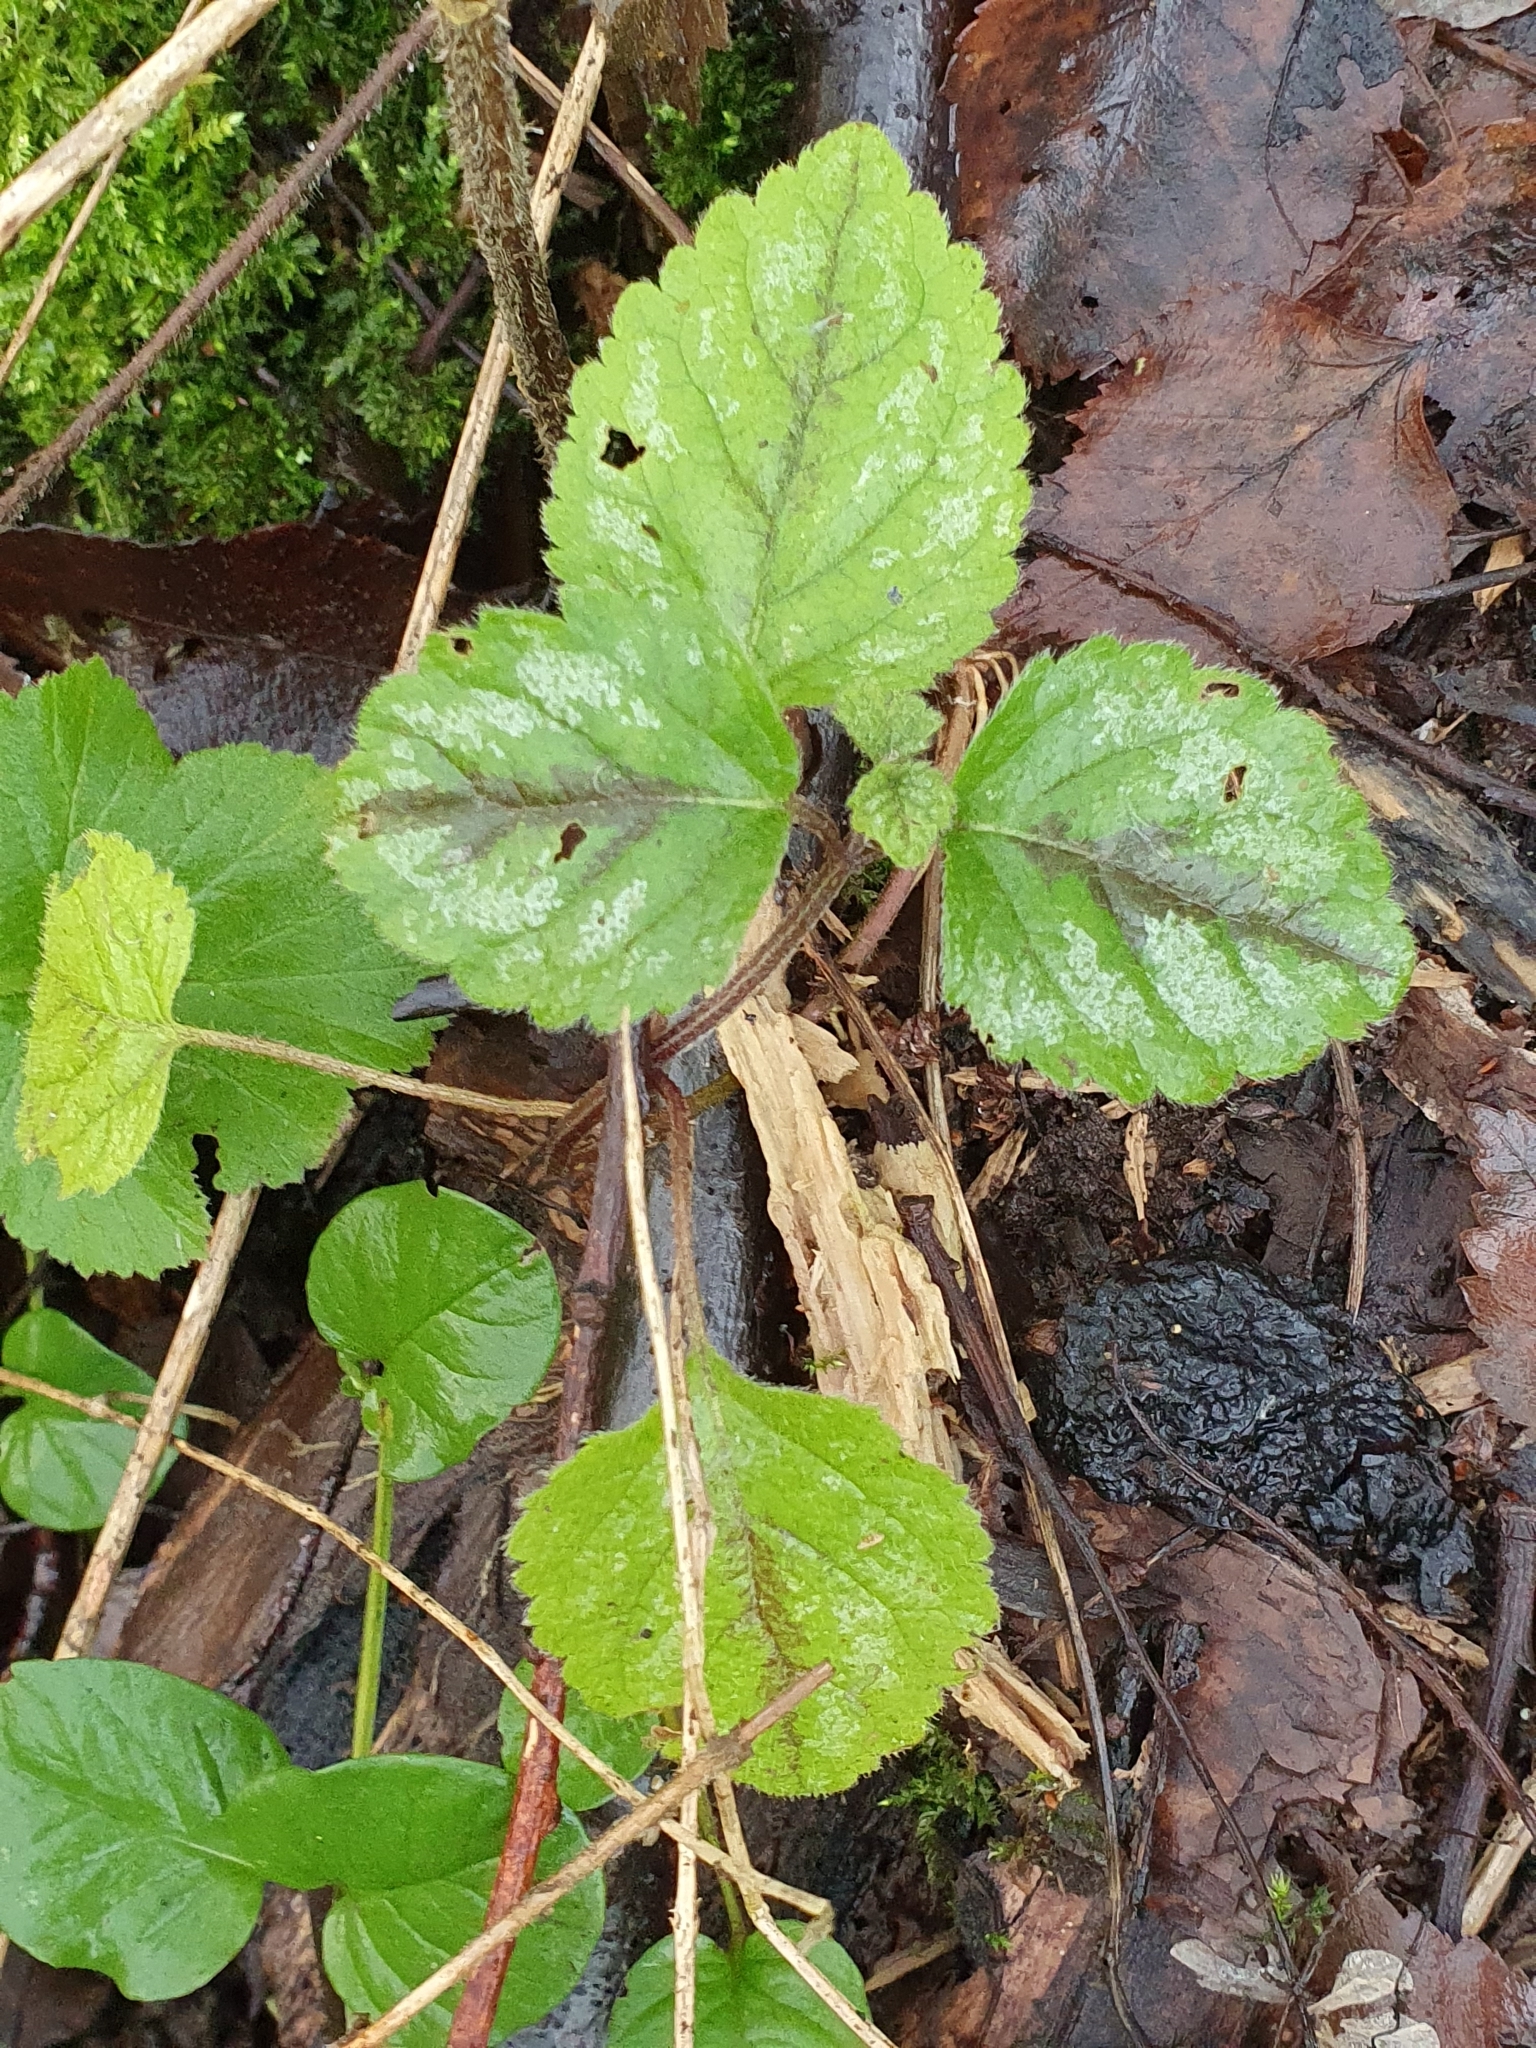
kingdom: Plantae
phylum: Tracheophyta
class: Magnoliopsida
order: Lamiales
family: Lamiaceae
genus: Lamium
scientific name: Lamium galeobdolon
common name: Yellow archangel
